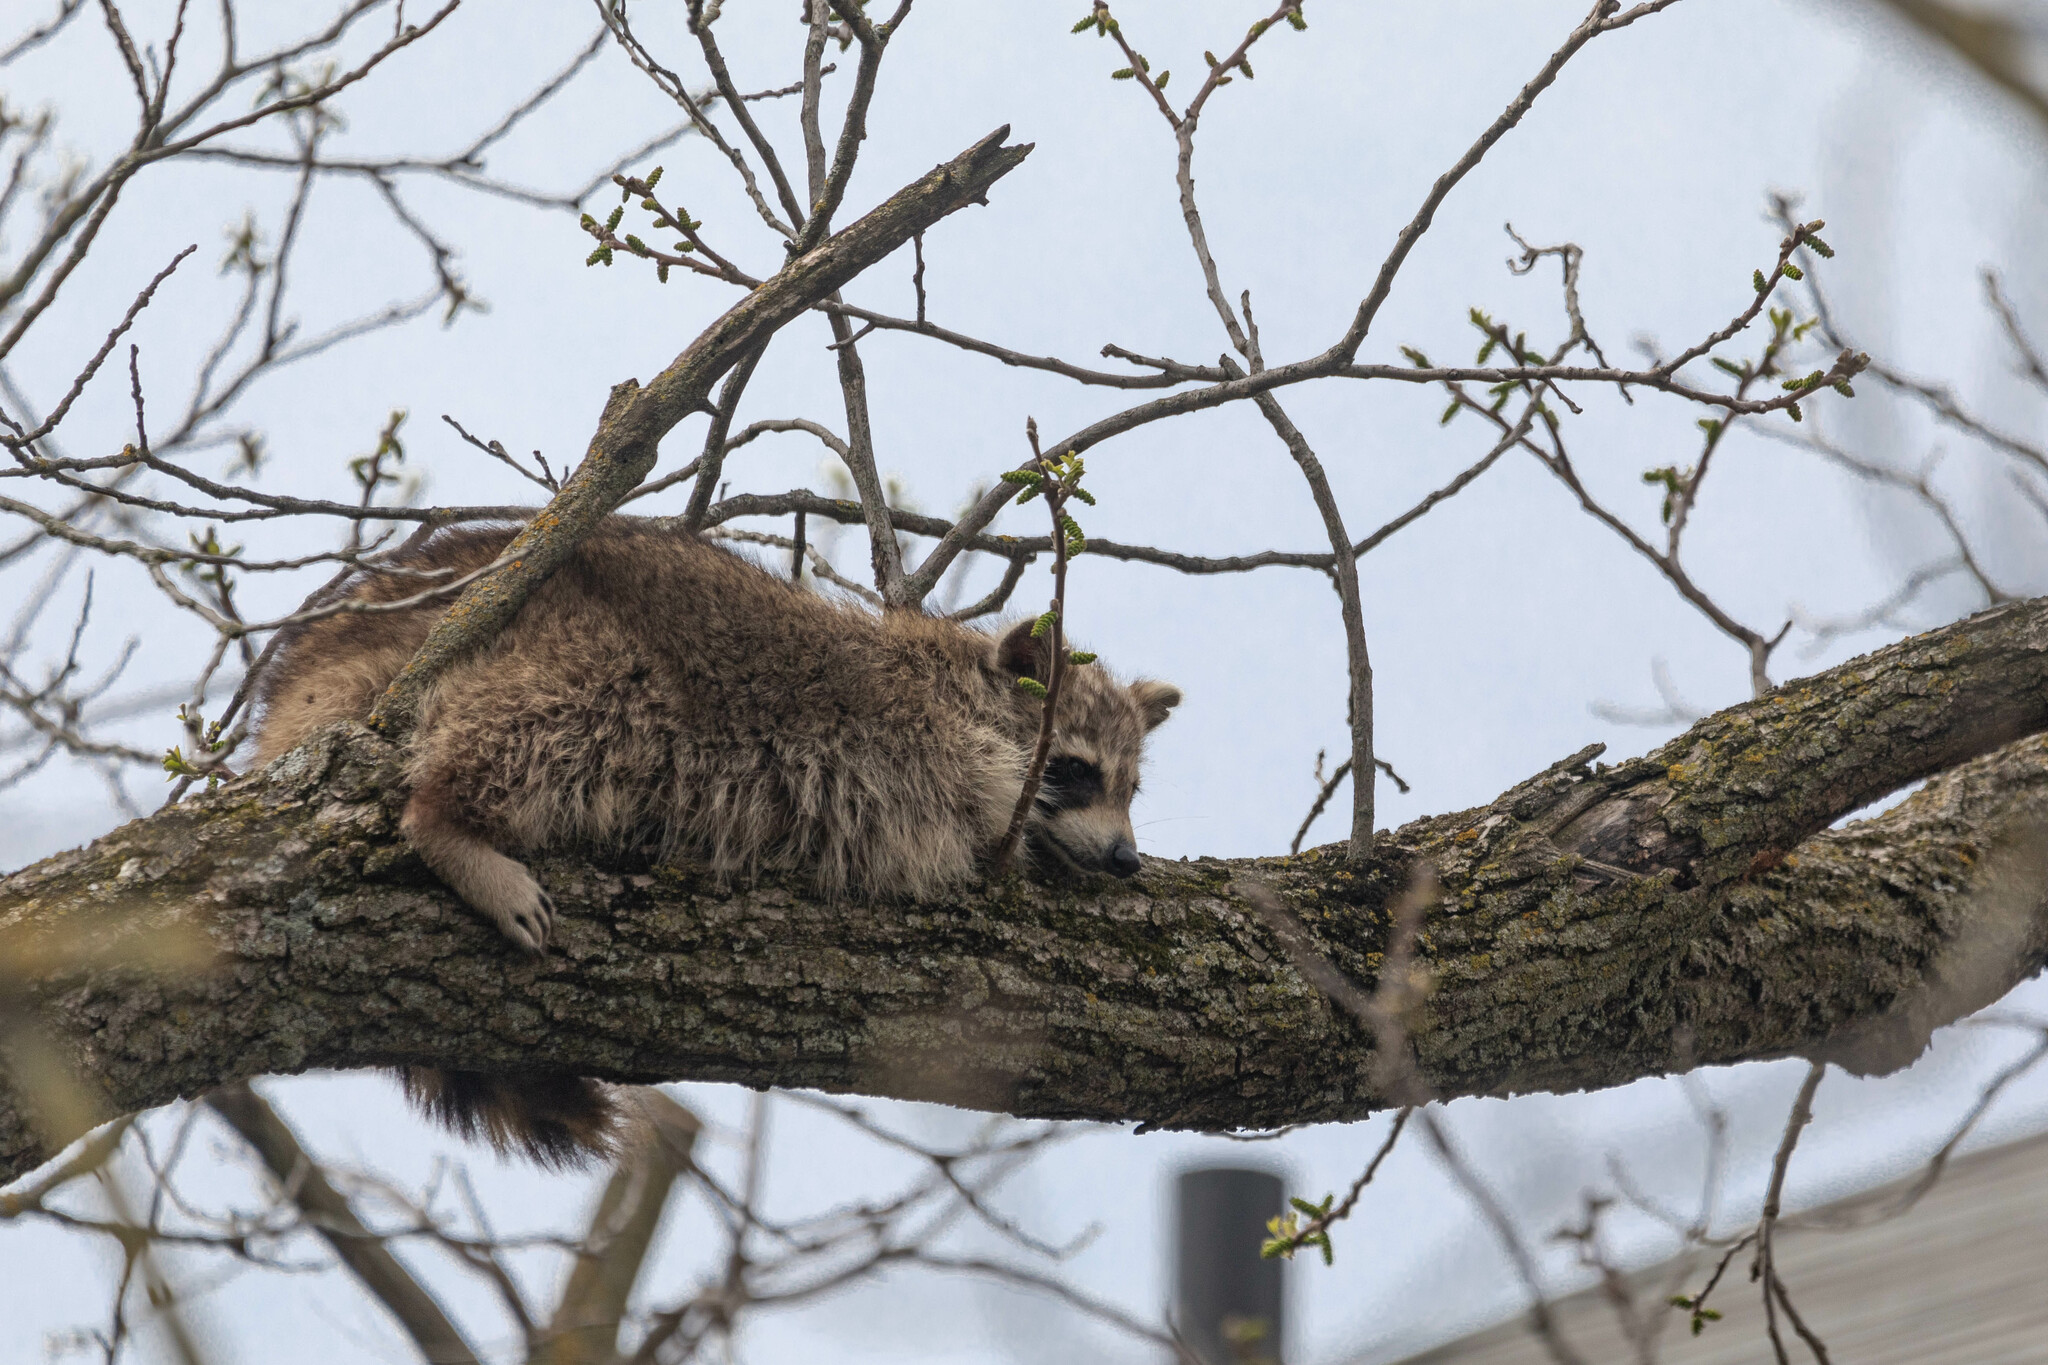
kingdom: Animalia
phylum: Chordata
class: Mammalia
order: Carnivora
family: Procyonidae
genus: Procyon
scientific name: Procyon lotor
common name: Raccoon
